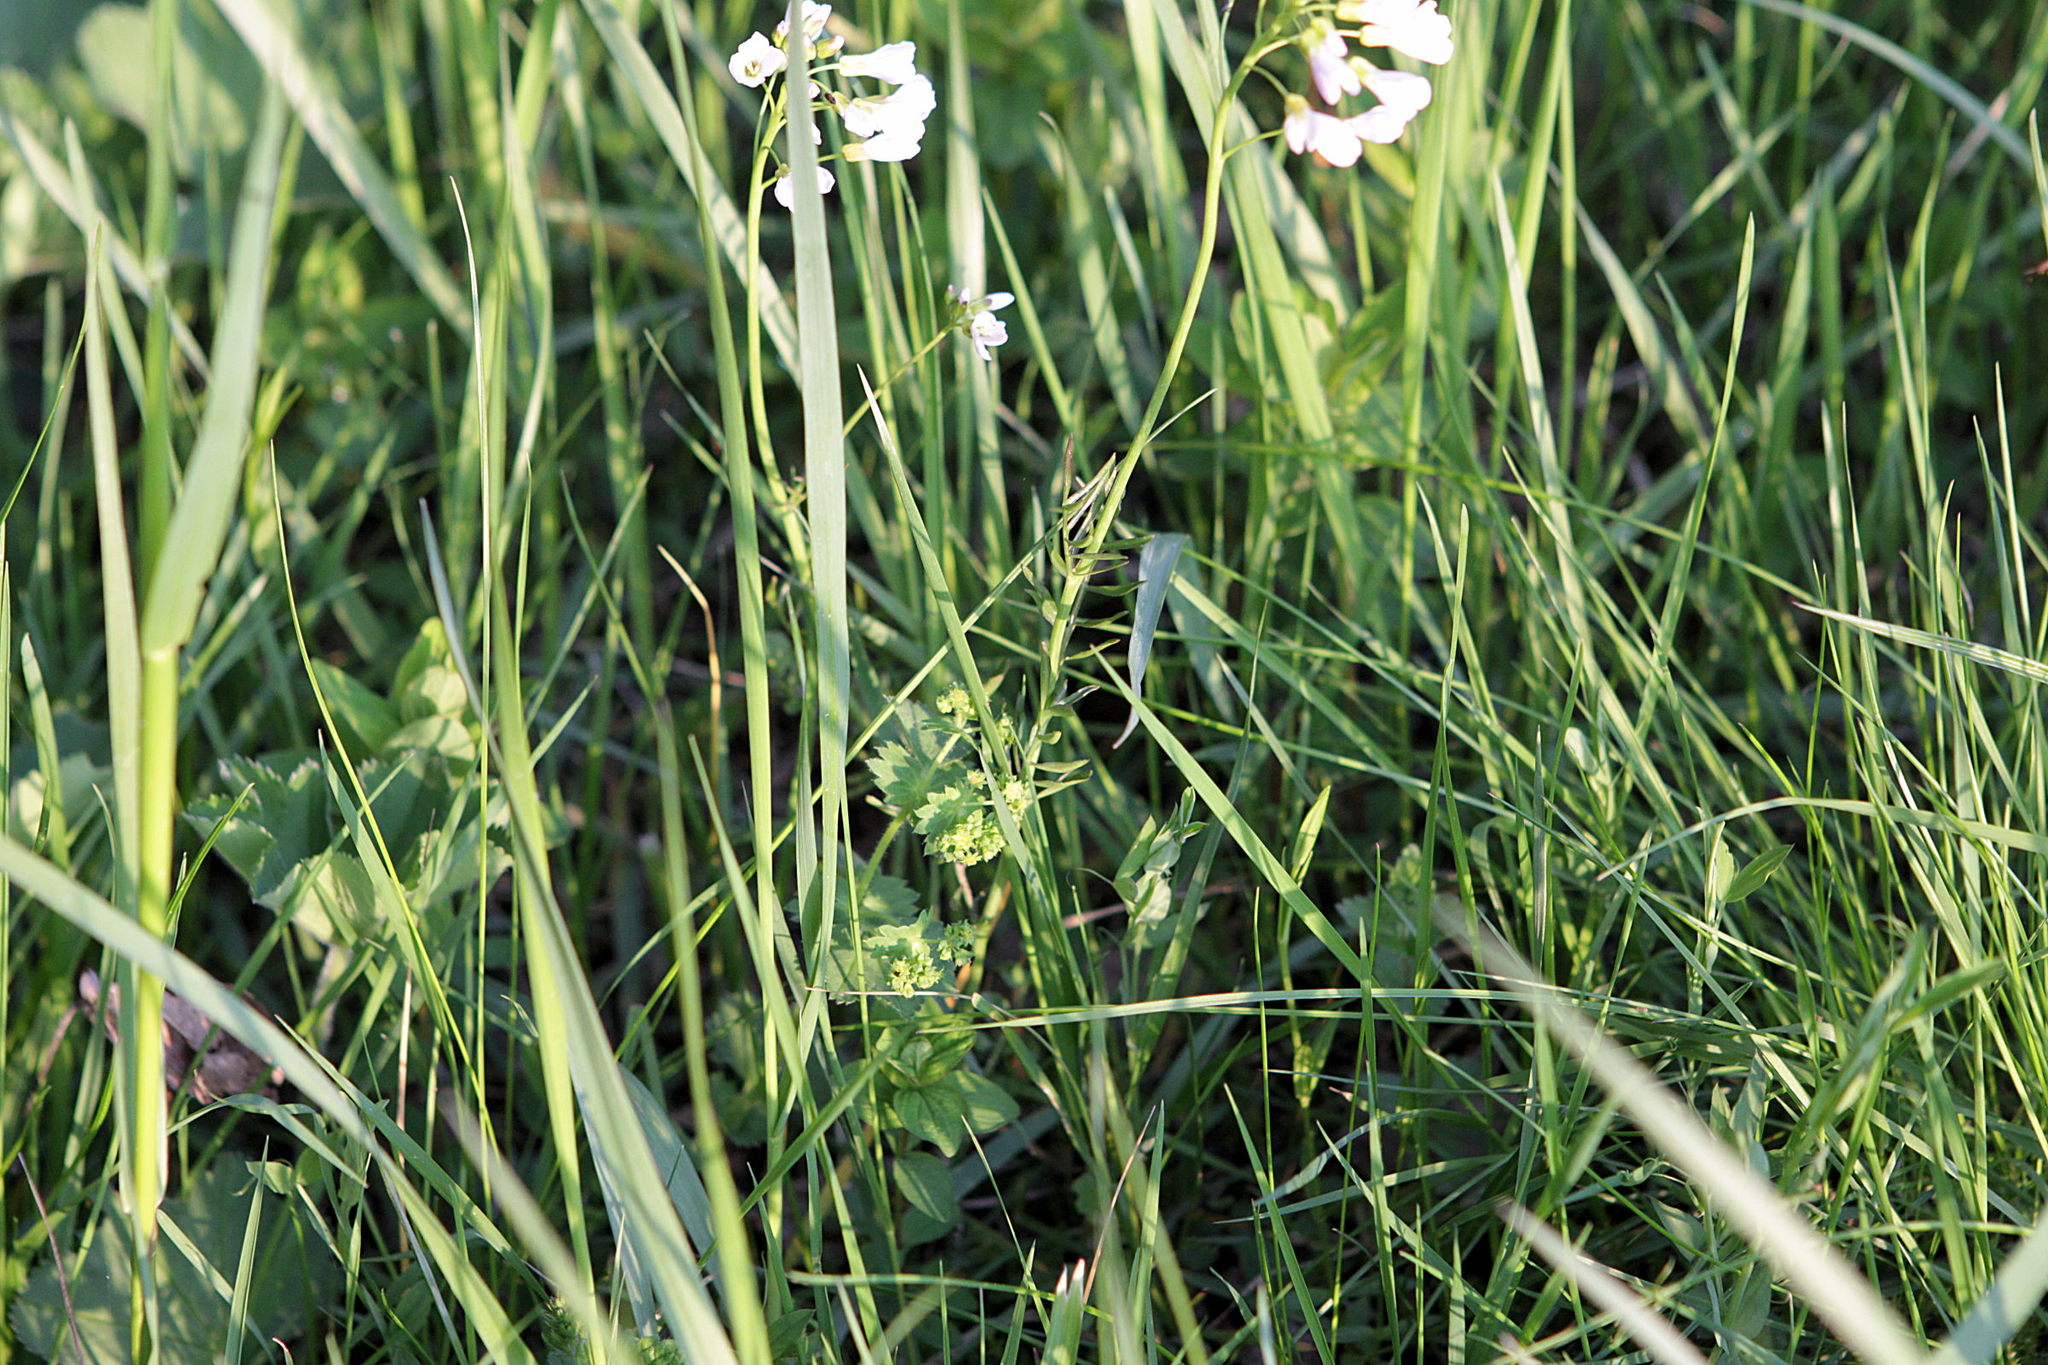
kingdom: Plantae
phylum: Tracheophyta
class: Magnoliopsida
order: Brassicales
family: Brassicaceae
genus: Cardamine
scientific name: Cardamine pratensis
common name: Cuckoo flower
